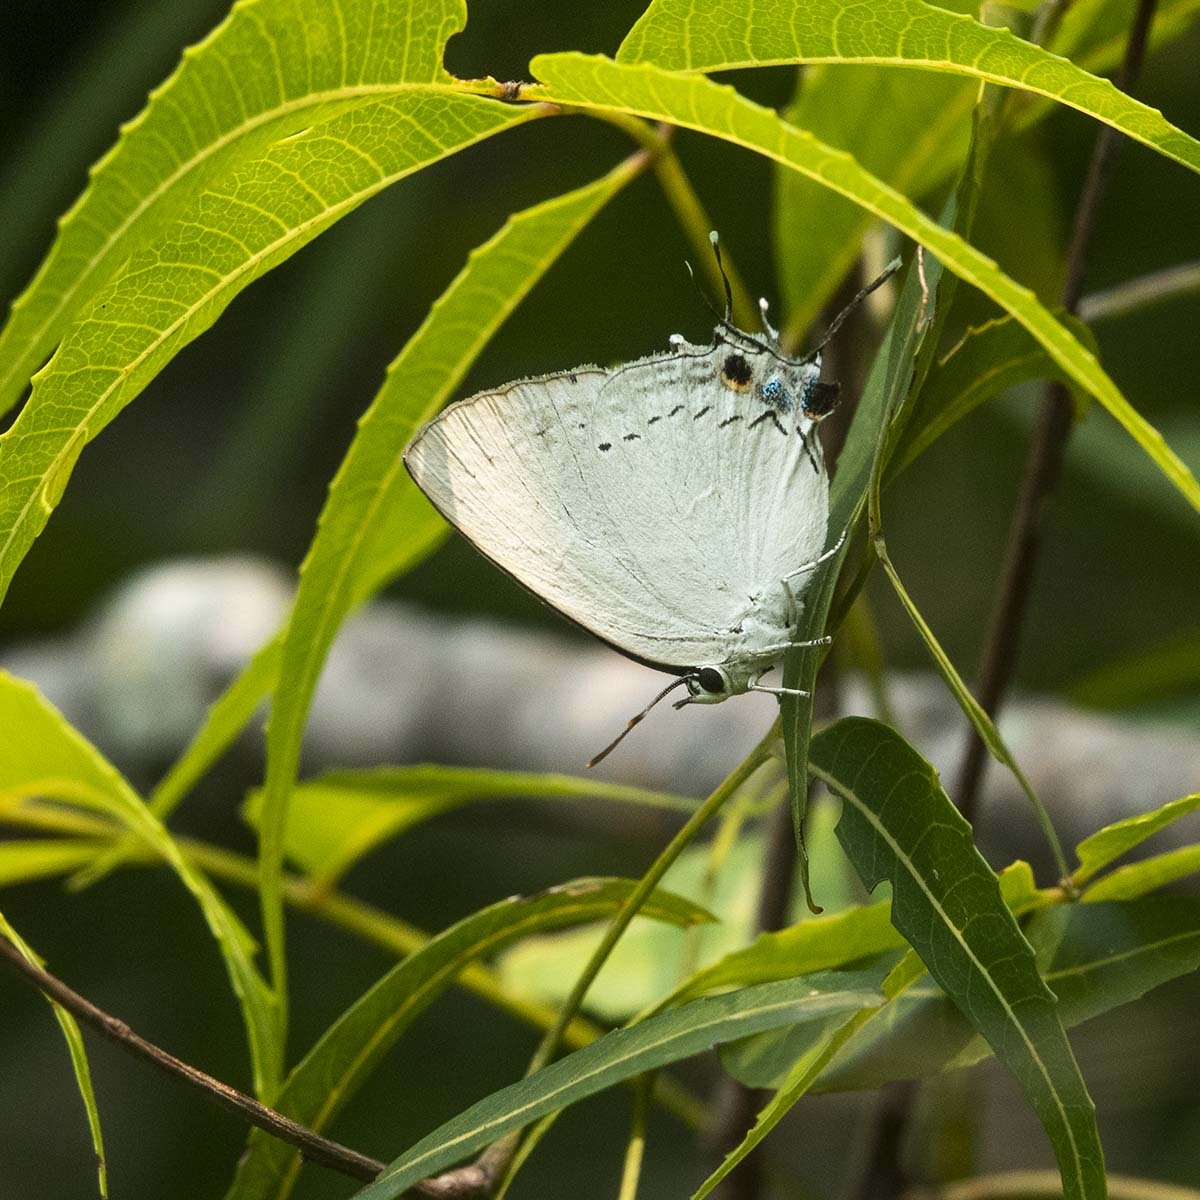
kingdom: Animalia
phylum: Arthropoda
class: Insecta
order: Lepidoptera
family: Lycaenidae
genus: Tajuria
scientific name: Tajuria cippus
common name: Peacock royal
